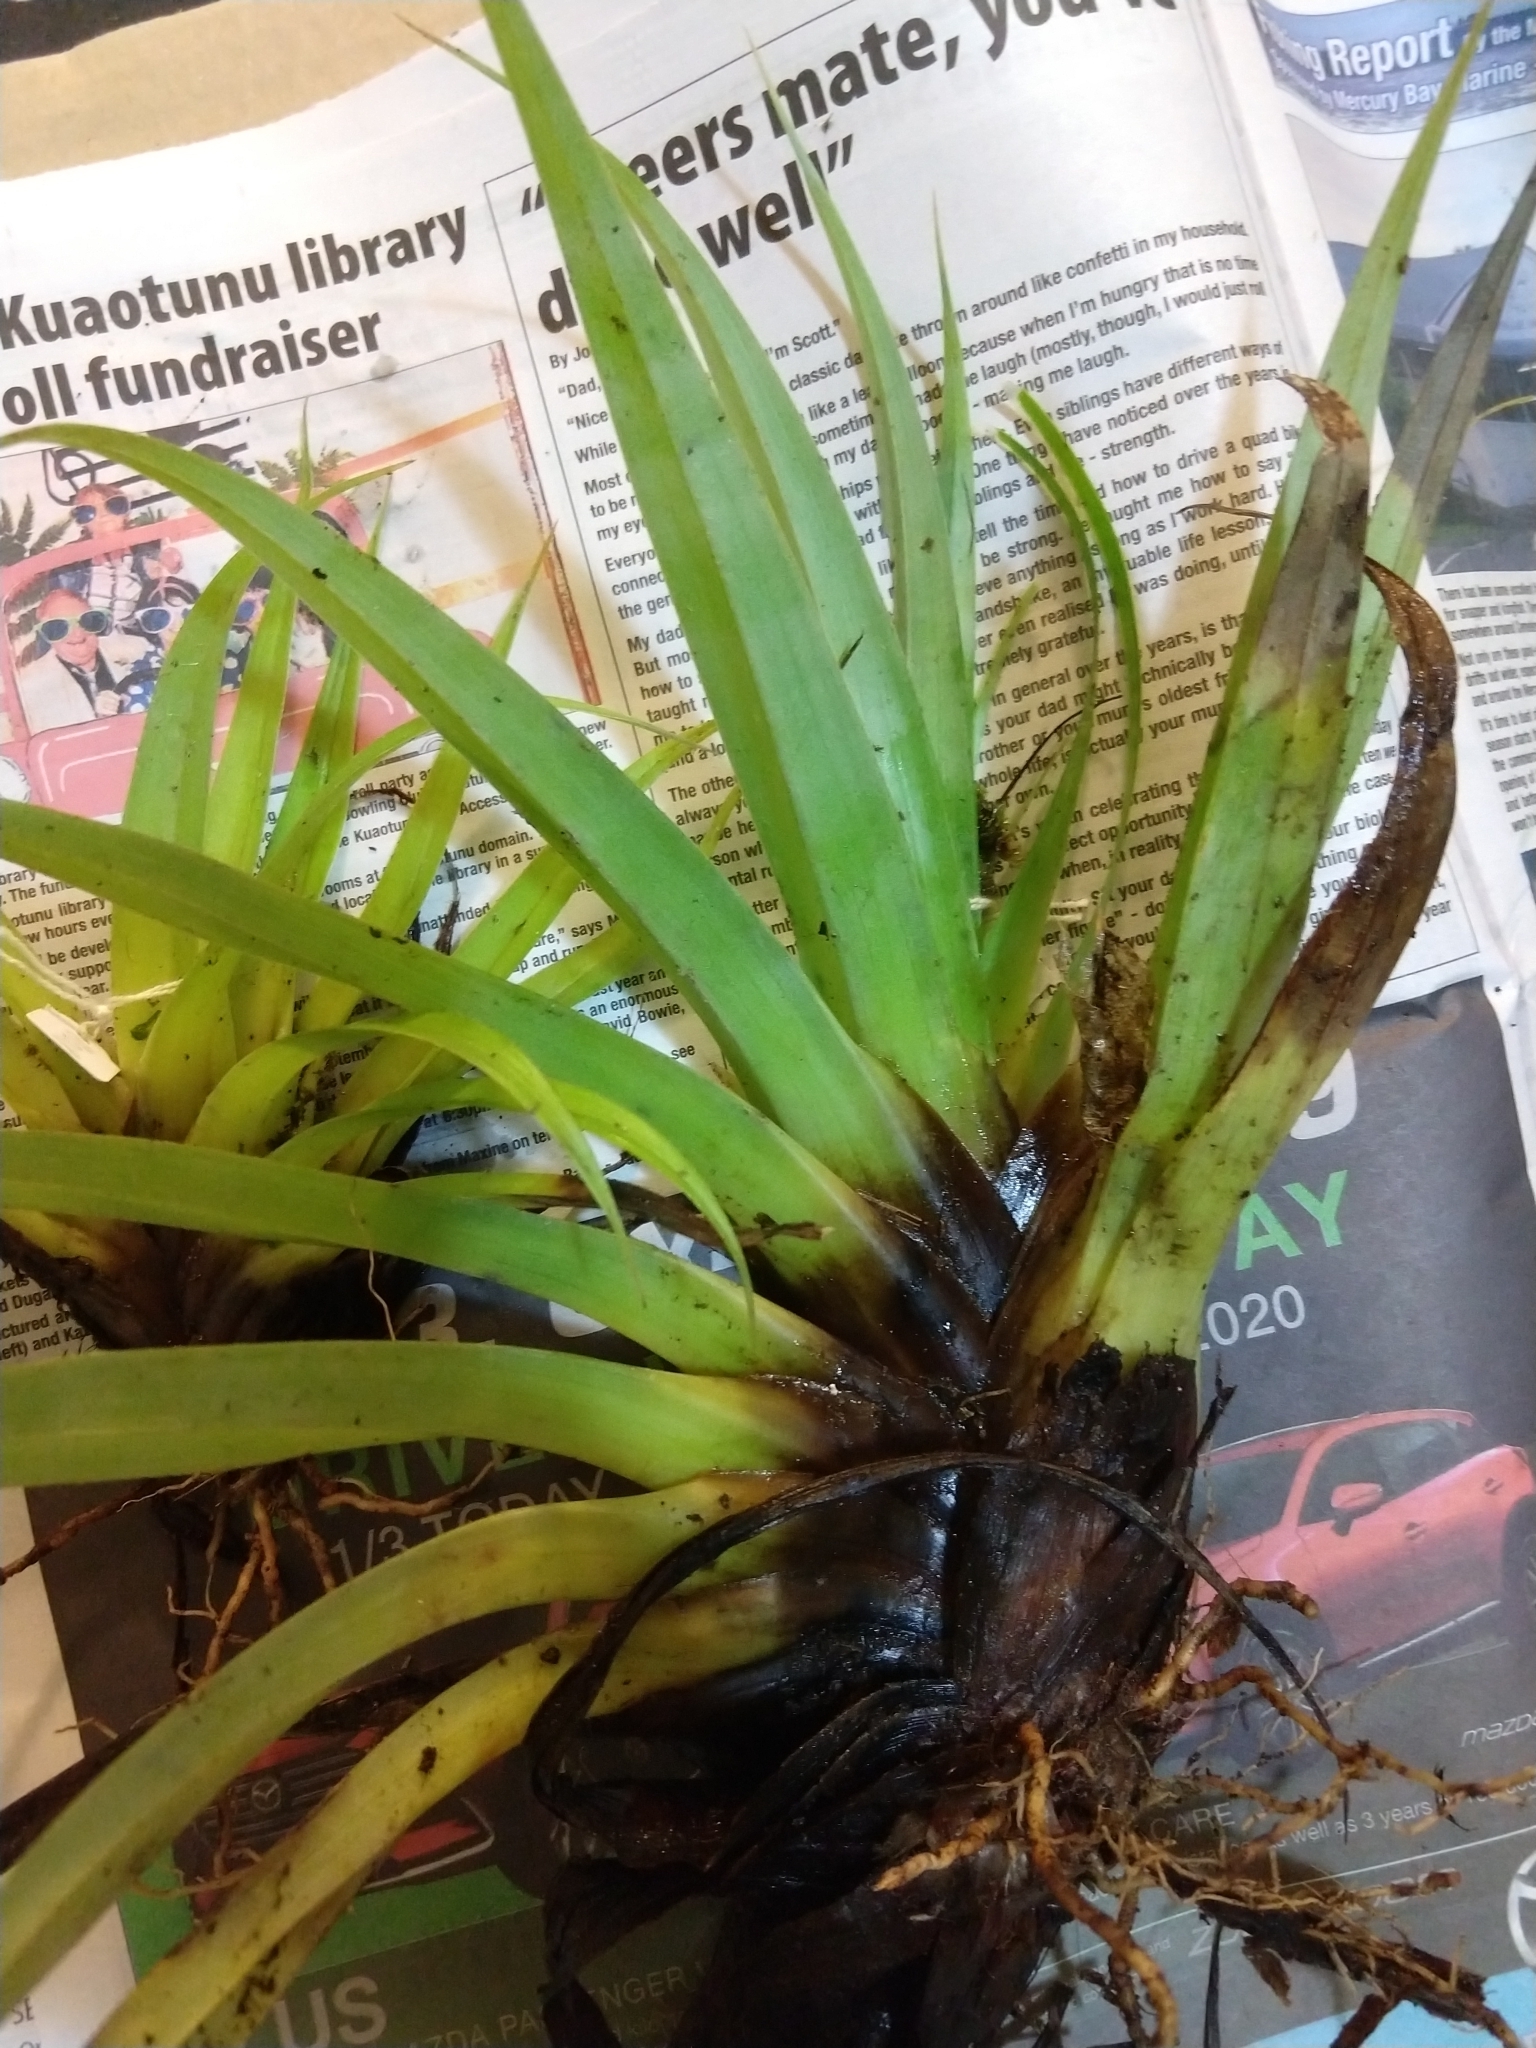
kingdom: Plantae
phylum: Tracheophyta
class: Liliopsida
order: Asparagales
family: Asteliaceae
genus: Astelia
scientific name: Astelia hastata
